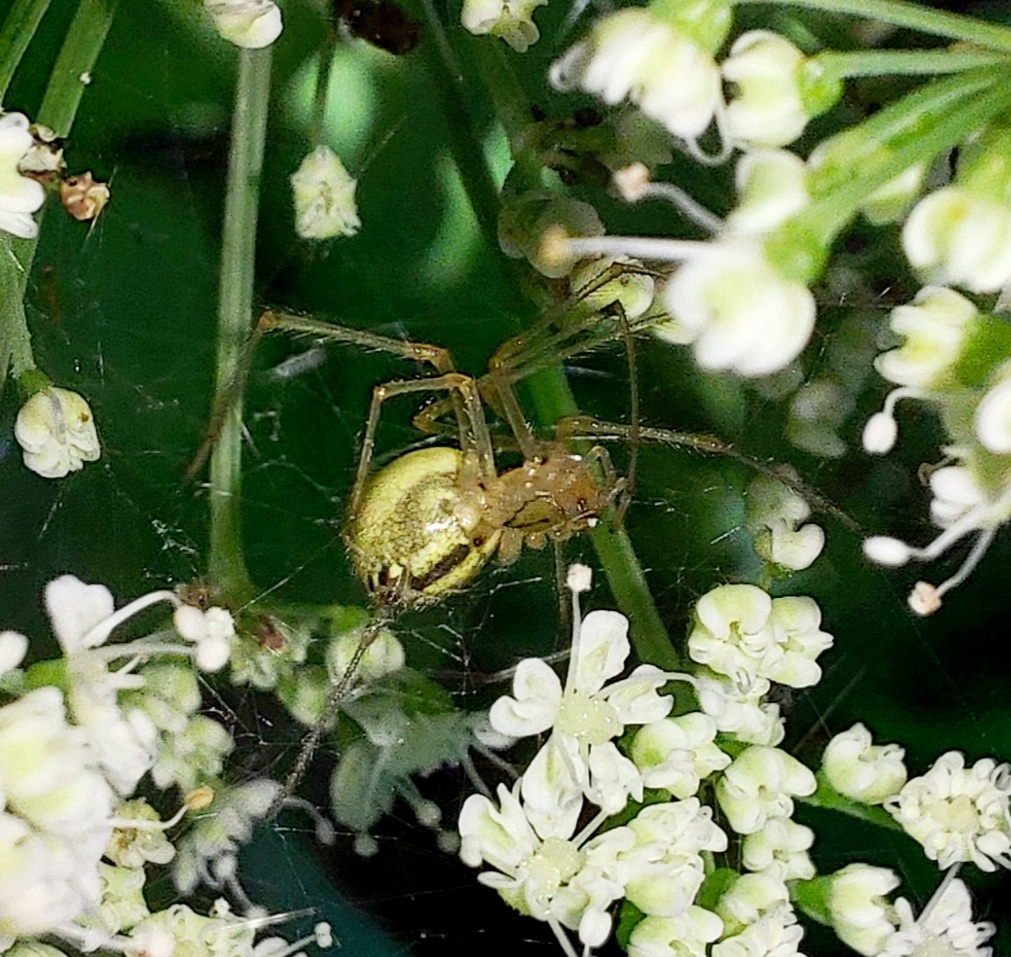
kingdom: Animalia
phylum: Arthropoda
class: Arachnida
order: Araneae
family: Theridiidae
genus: Enoplognatha
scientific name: Enoplognatha ovata
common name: Common candy-striped spider
